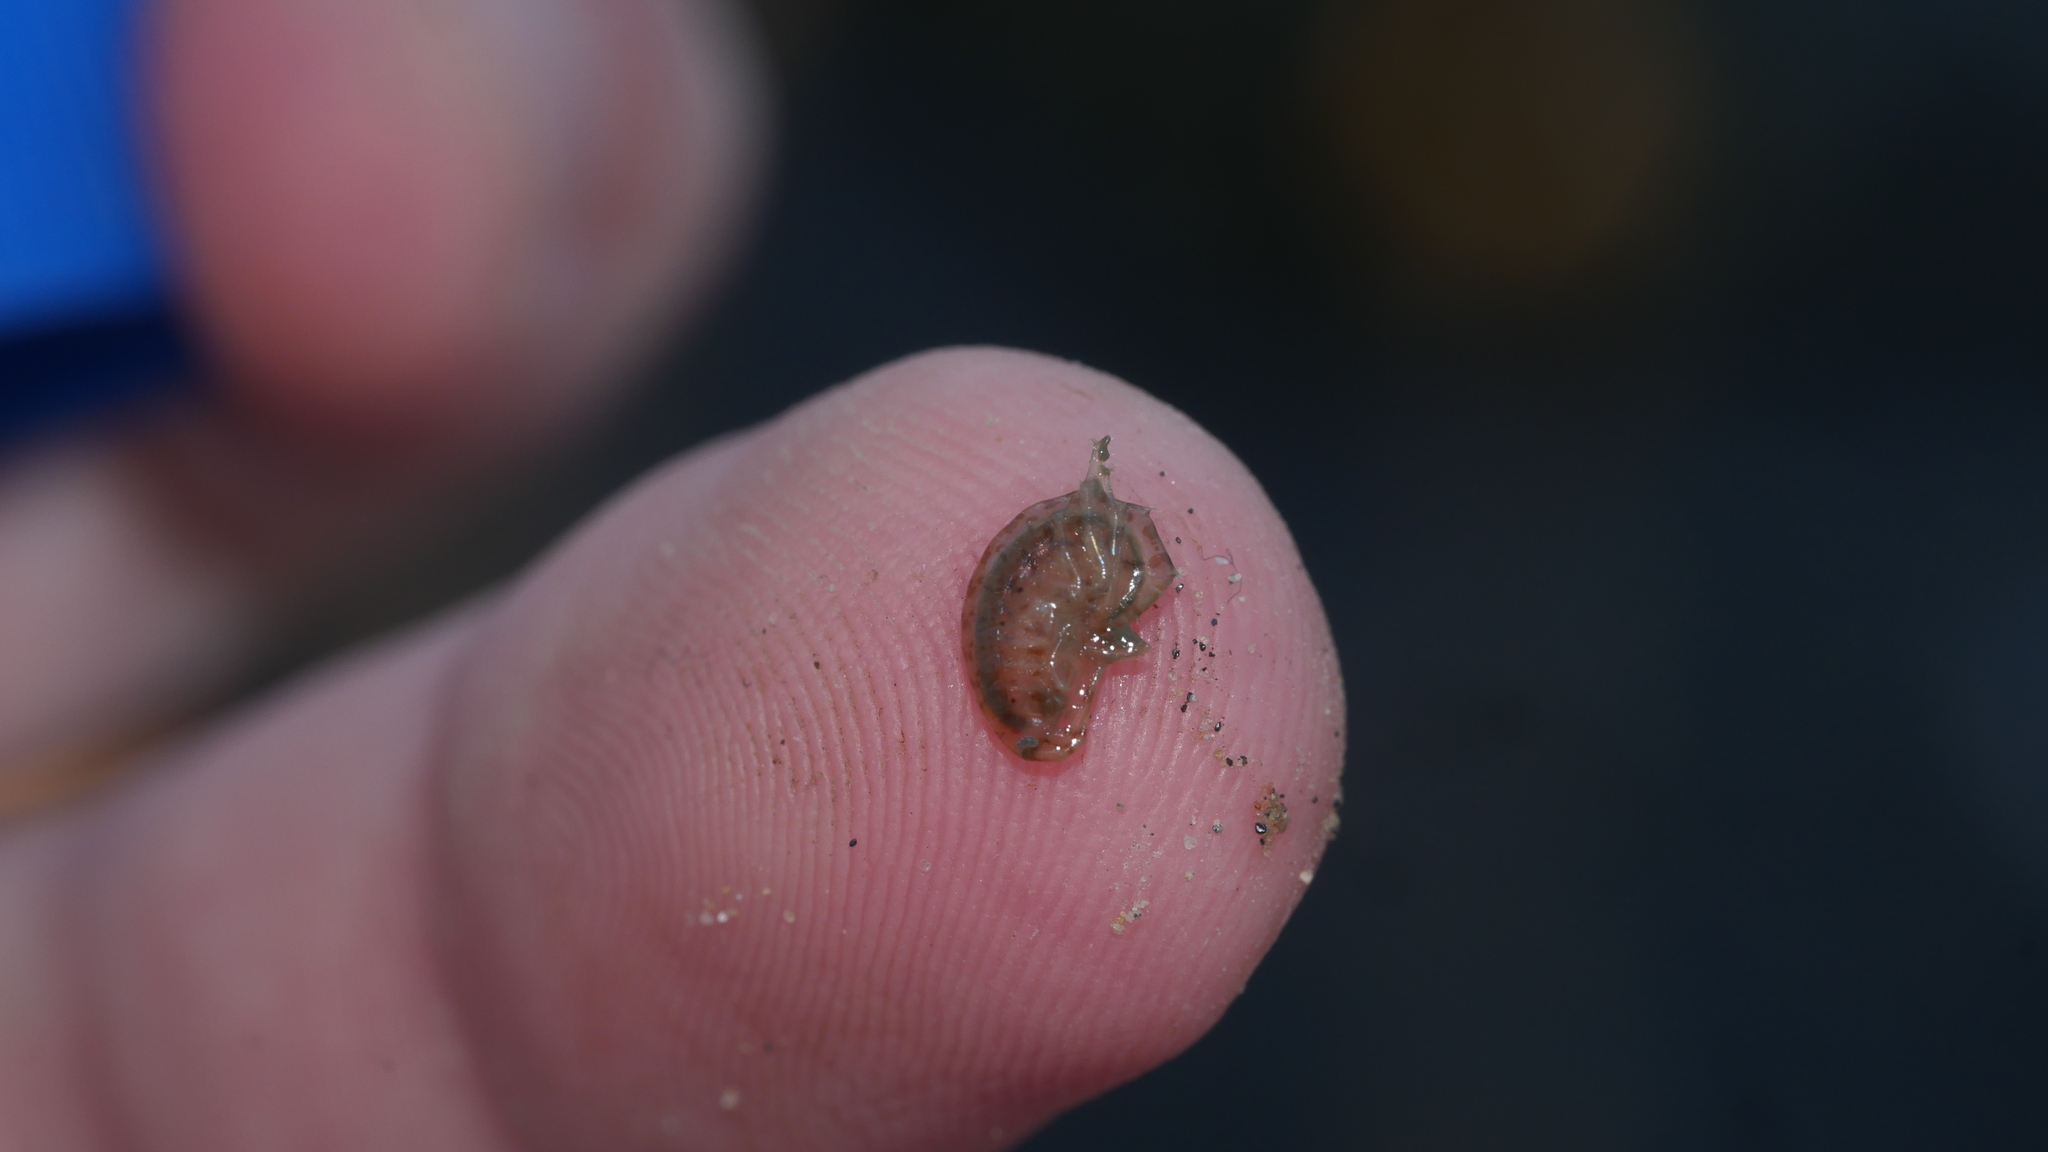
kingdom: Animalia
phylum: Arthropoda
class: Malacostraca
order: Amphipoda
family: Gammaridae
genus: Gammarus
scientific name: Gammarus mucronatus
